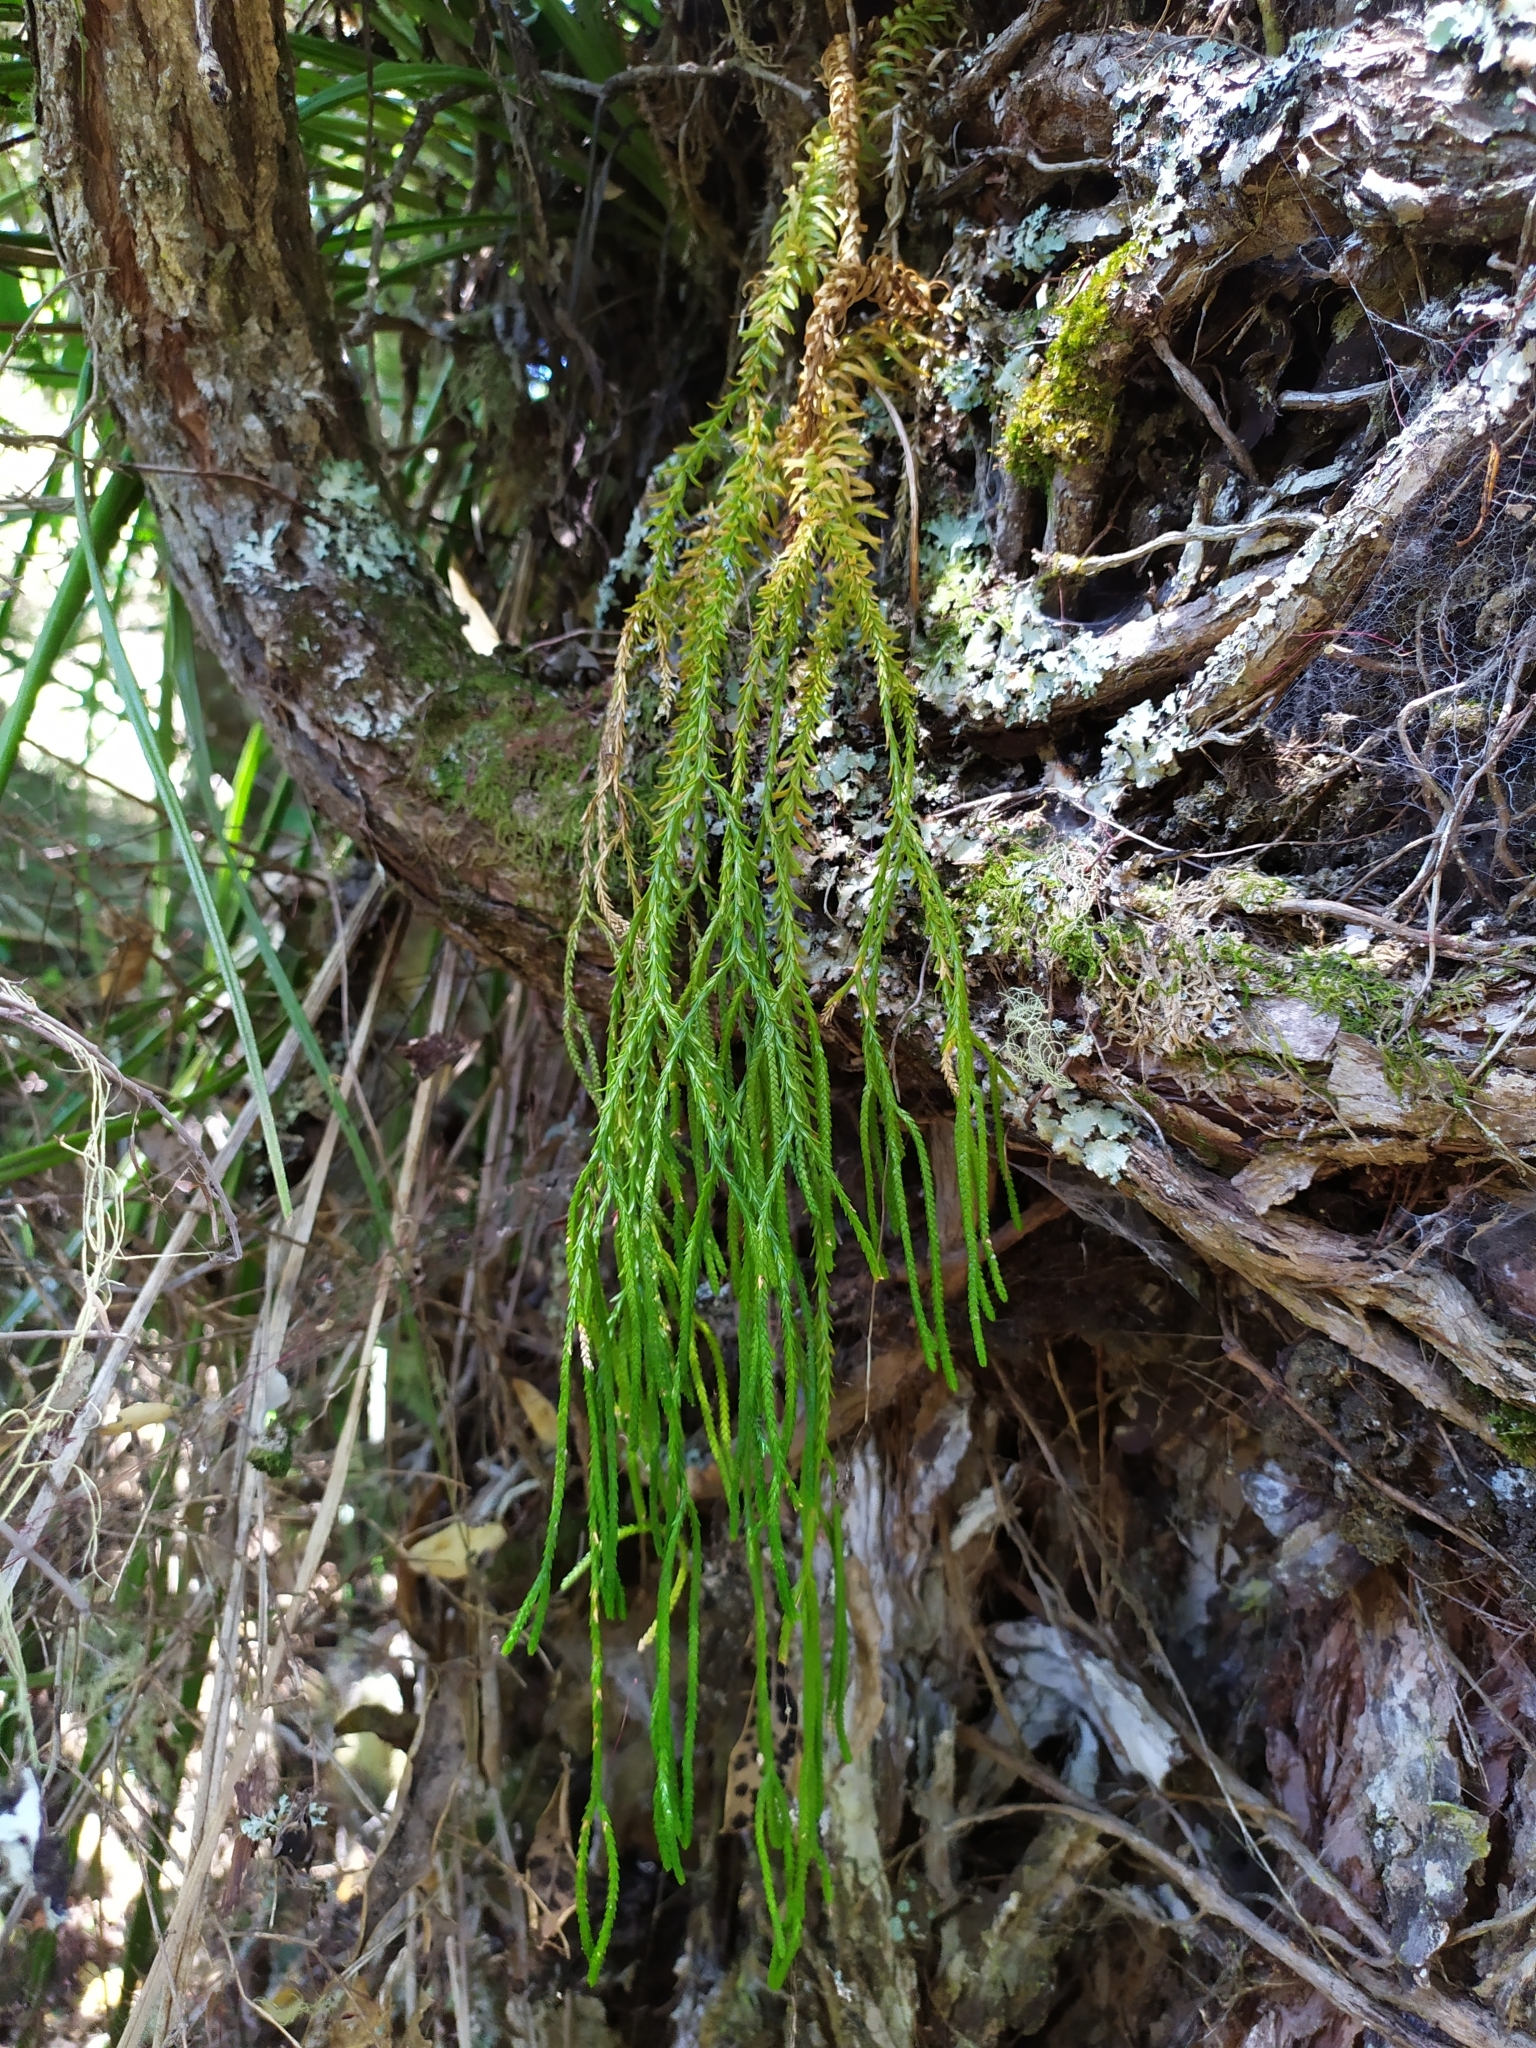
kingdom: Plantae
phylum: Tracheophyta
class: Lycopodiopsida
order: Lycopodiales
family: Lycopodiaceae
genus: Phlegmariurus
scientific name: Phlegmariurus billardierei
